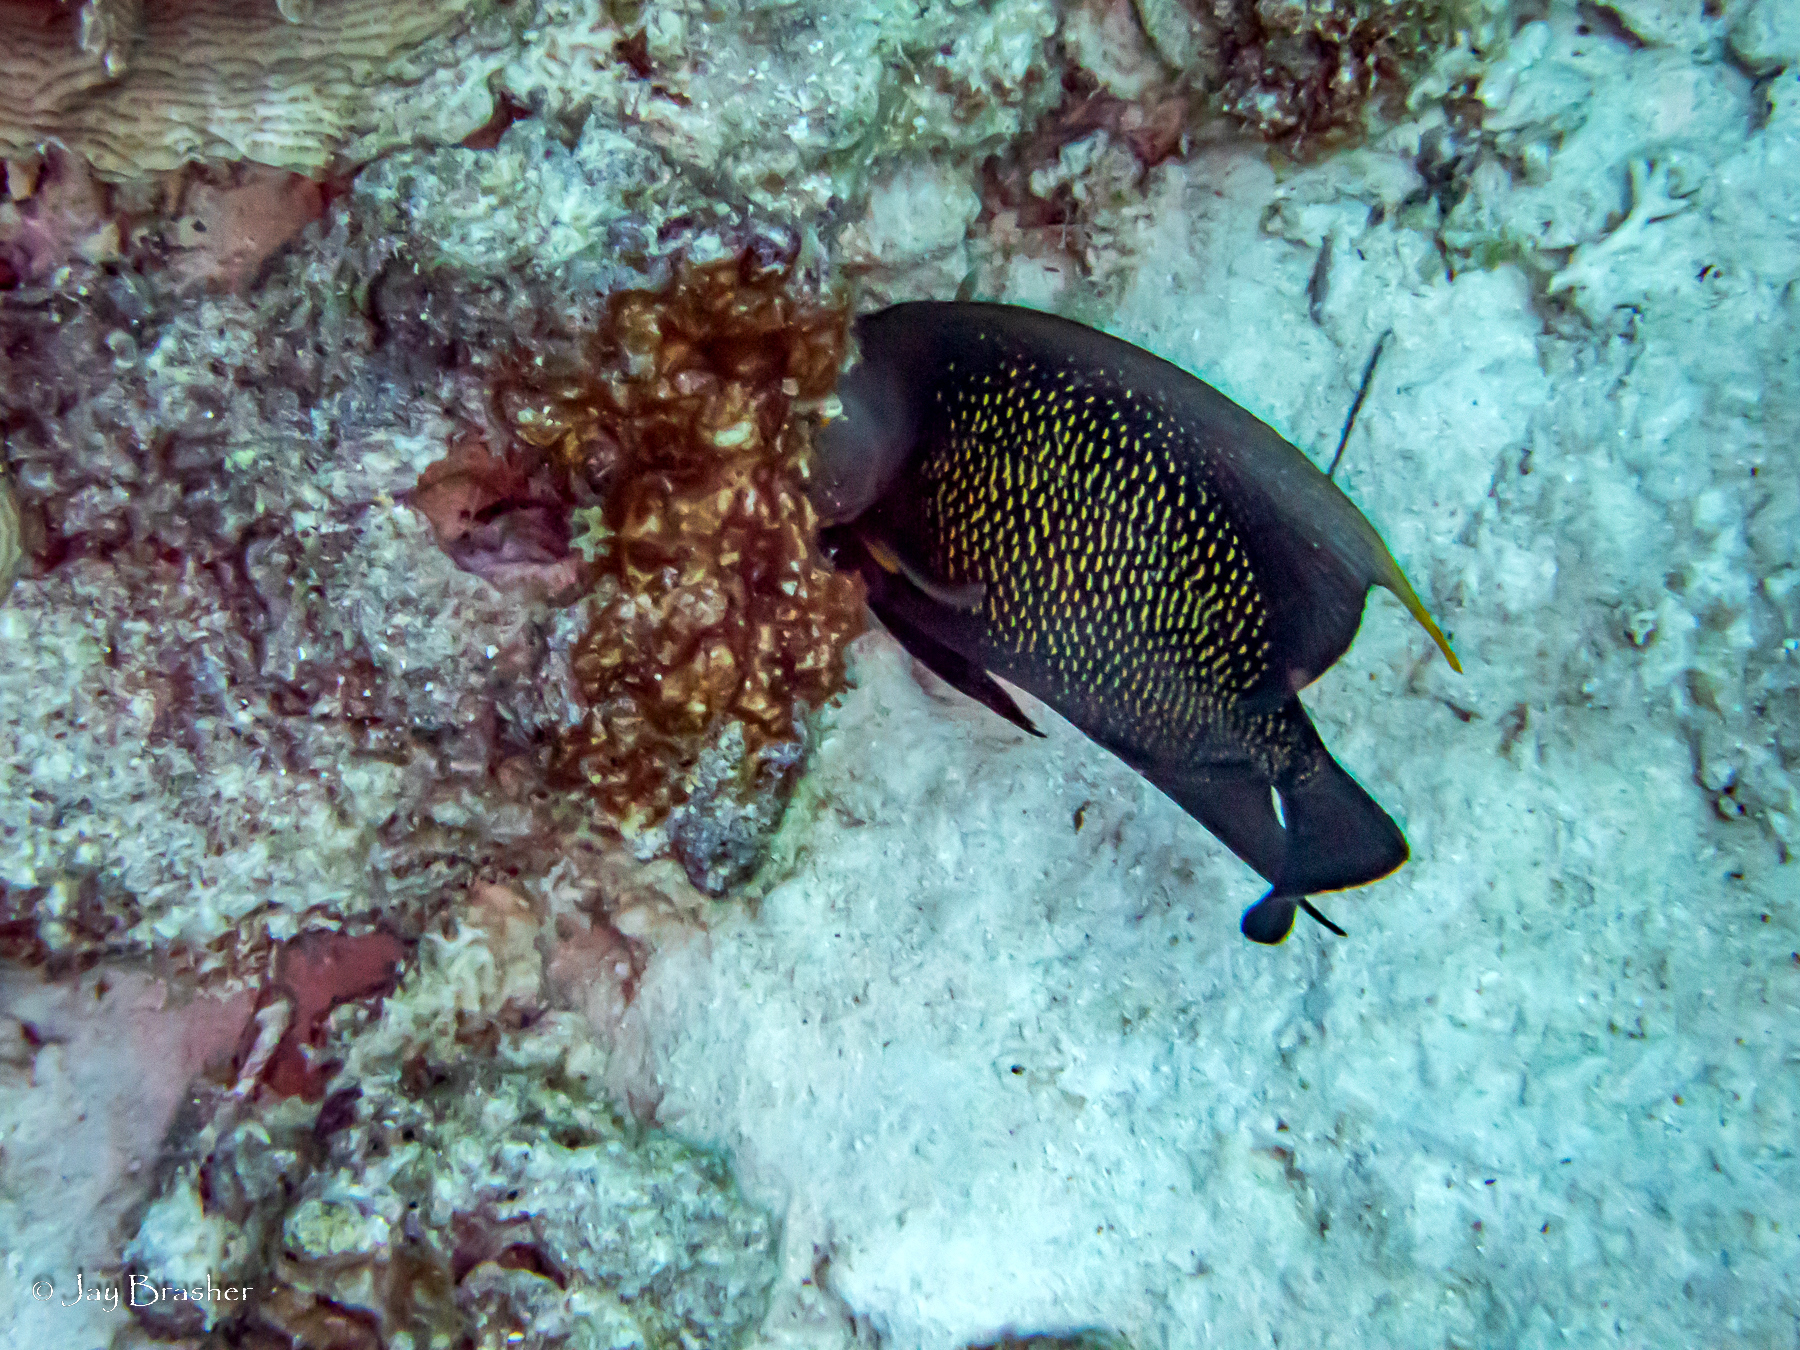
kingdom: Animalia
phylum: Chordata
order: Perciformes
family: Pomacanthidae
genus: Pomacanthus
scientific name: Pomacanthus paru
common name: French angelfish
